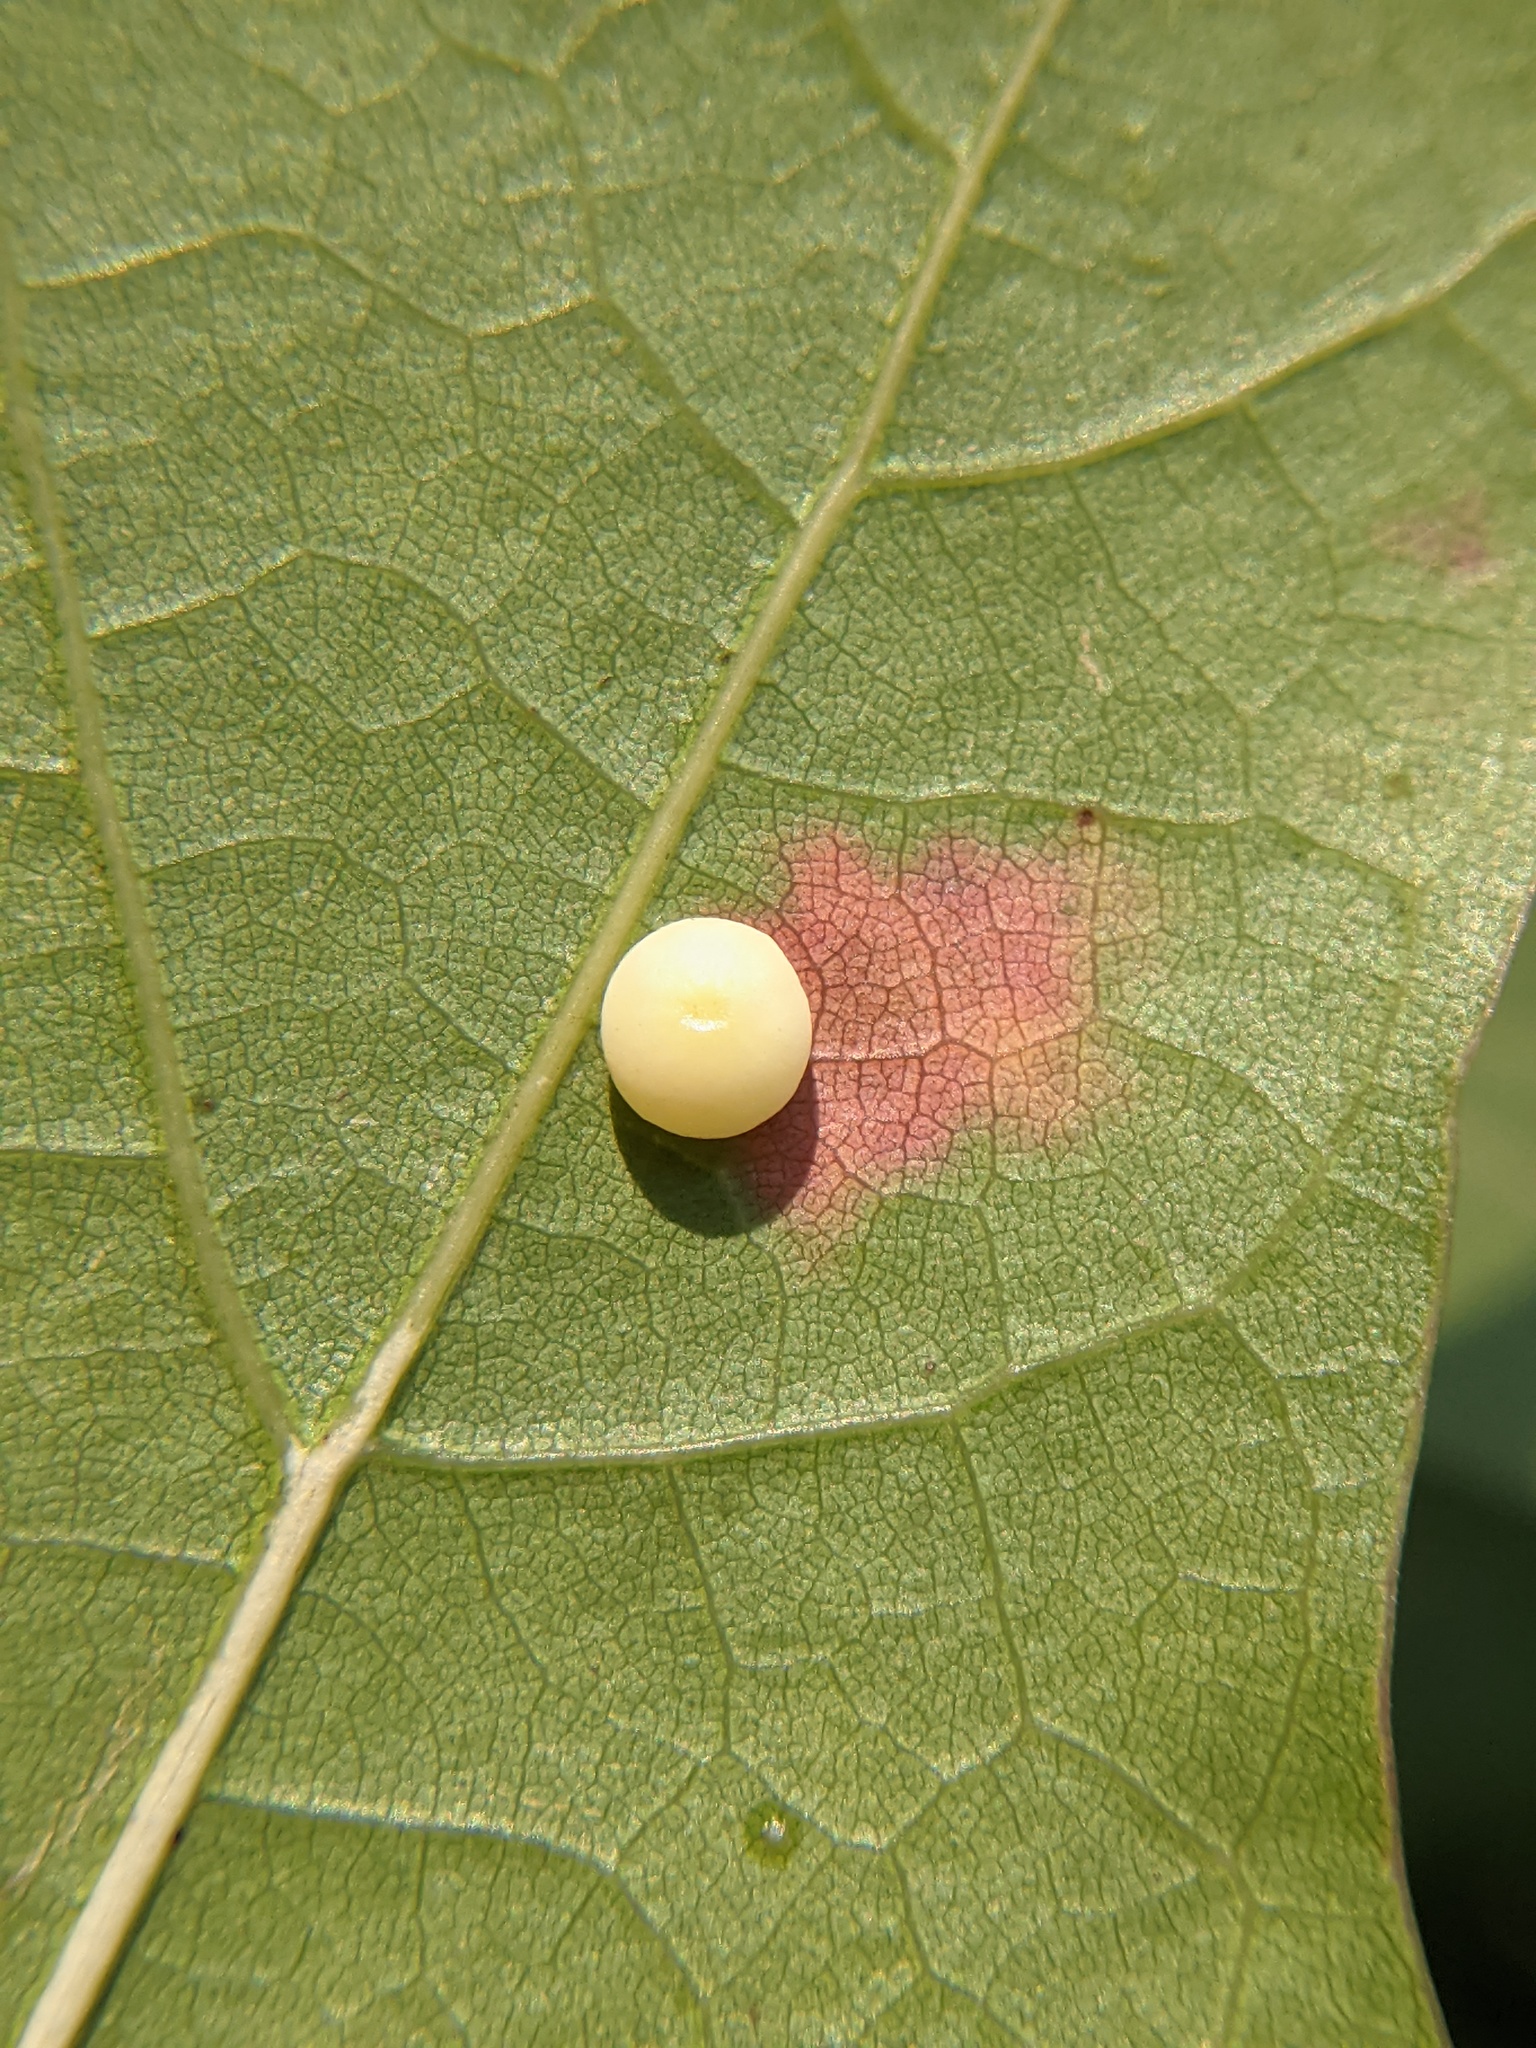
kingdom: Animalia
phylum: Arthropoda
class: Insecta
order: Hymenoptera
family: Cynipidae
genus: Zopheroteras
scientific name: Zopheroteras
